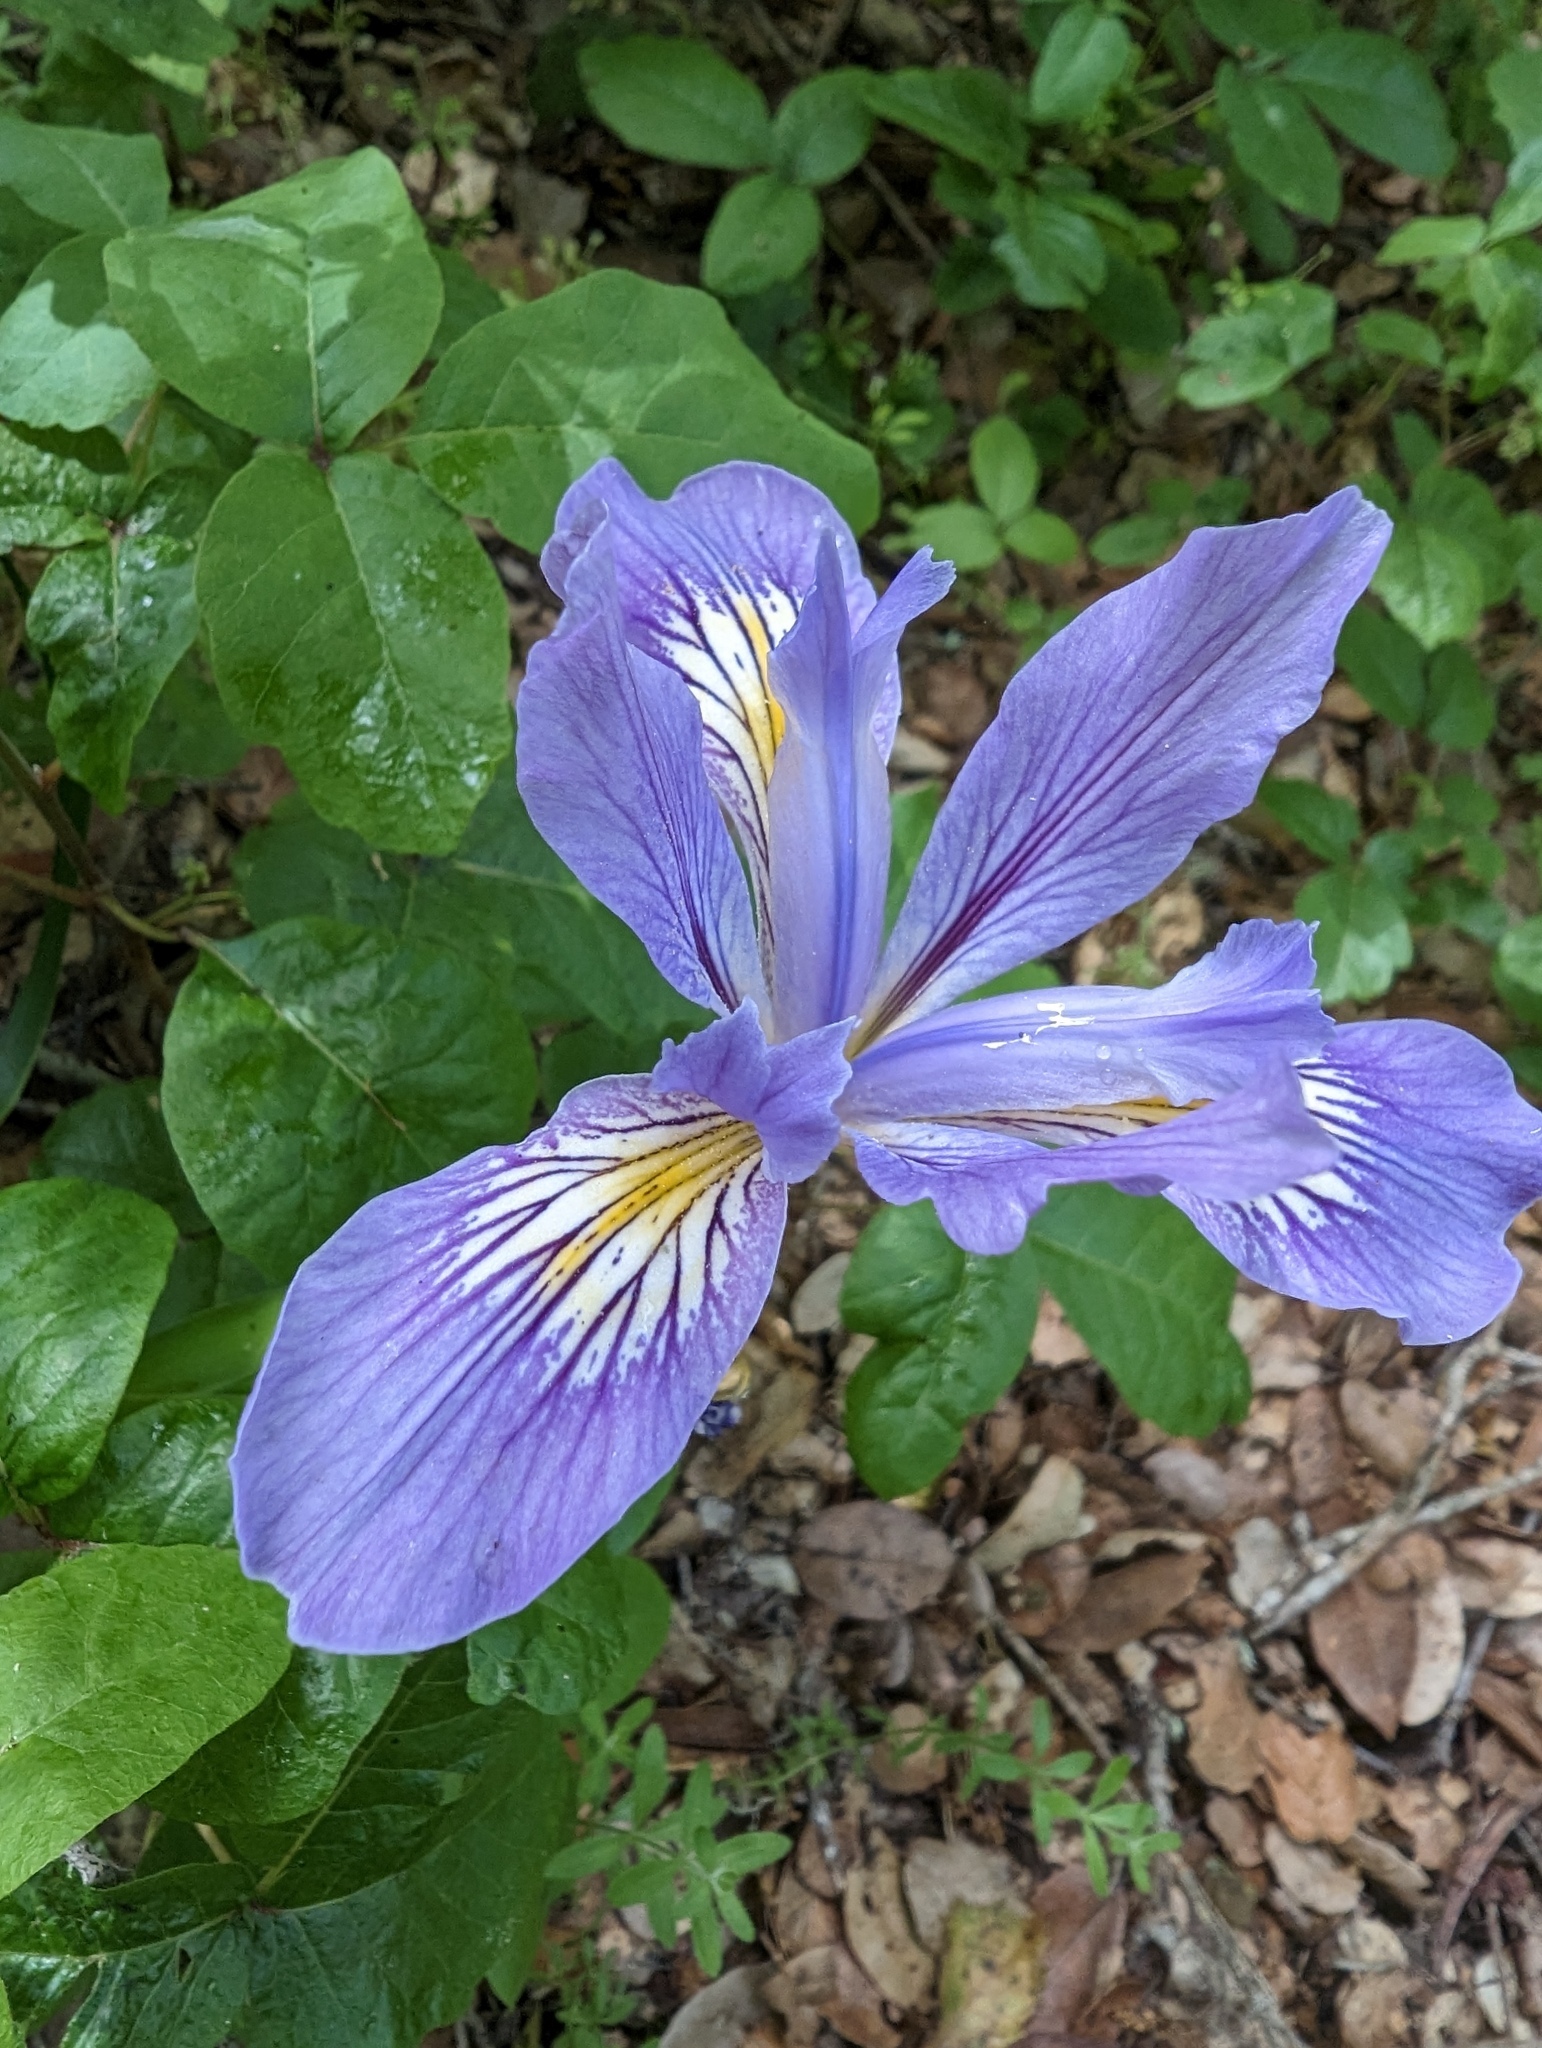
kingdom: Plantae
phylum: Tracheophyta
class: Liliopsida
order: Asparagales
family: Iridaceae
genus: Iris
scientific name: Iris douglasiana
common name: Marin iris
